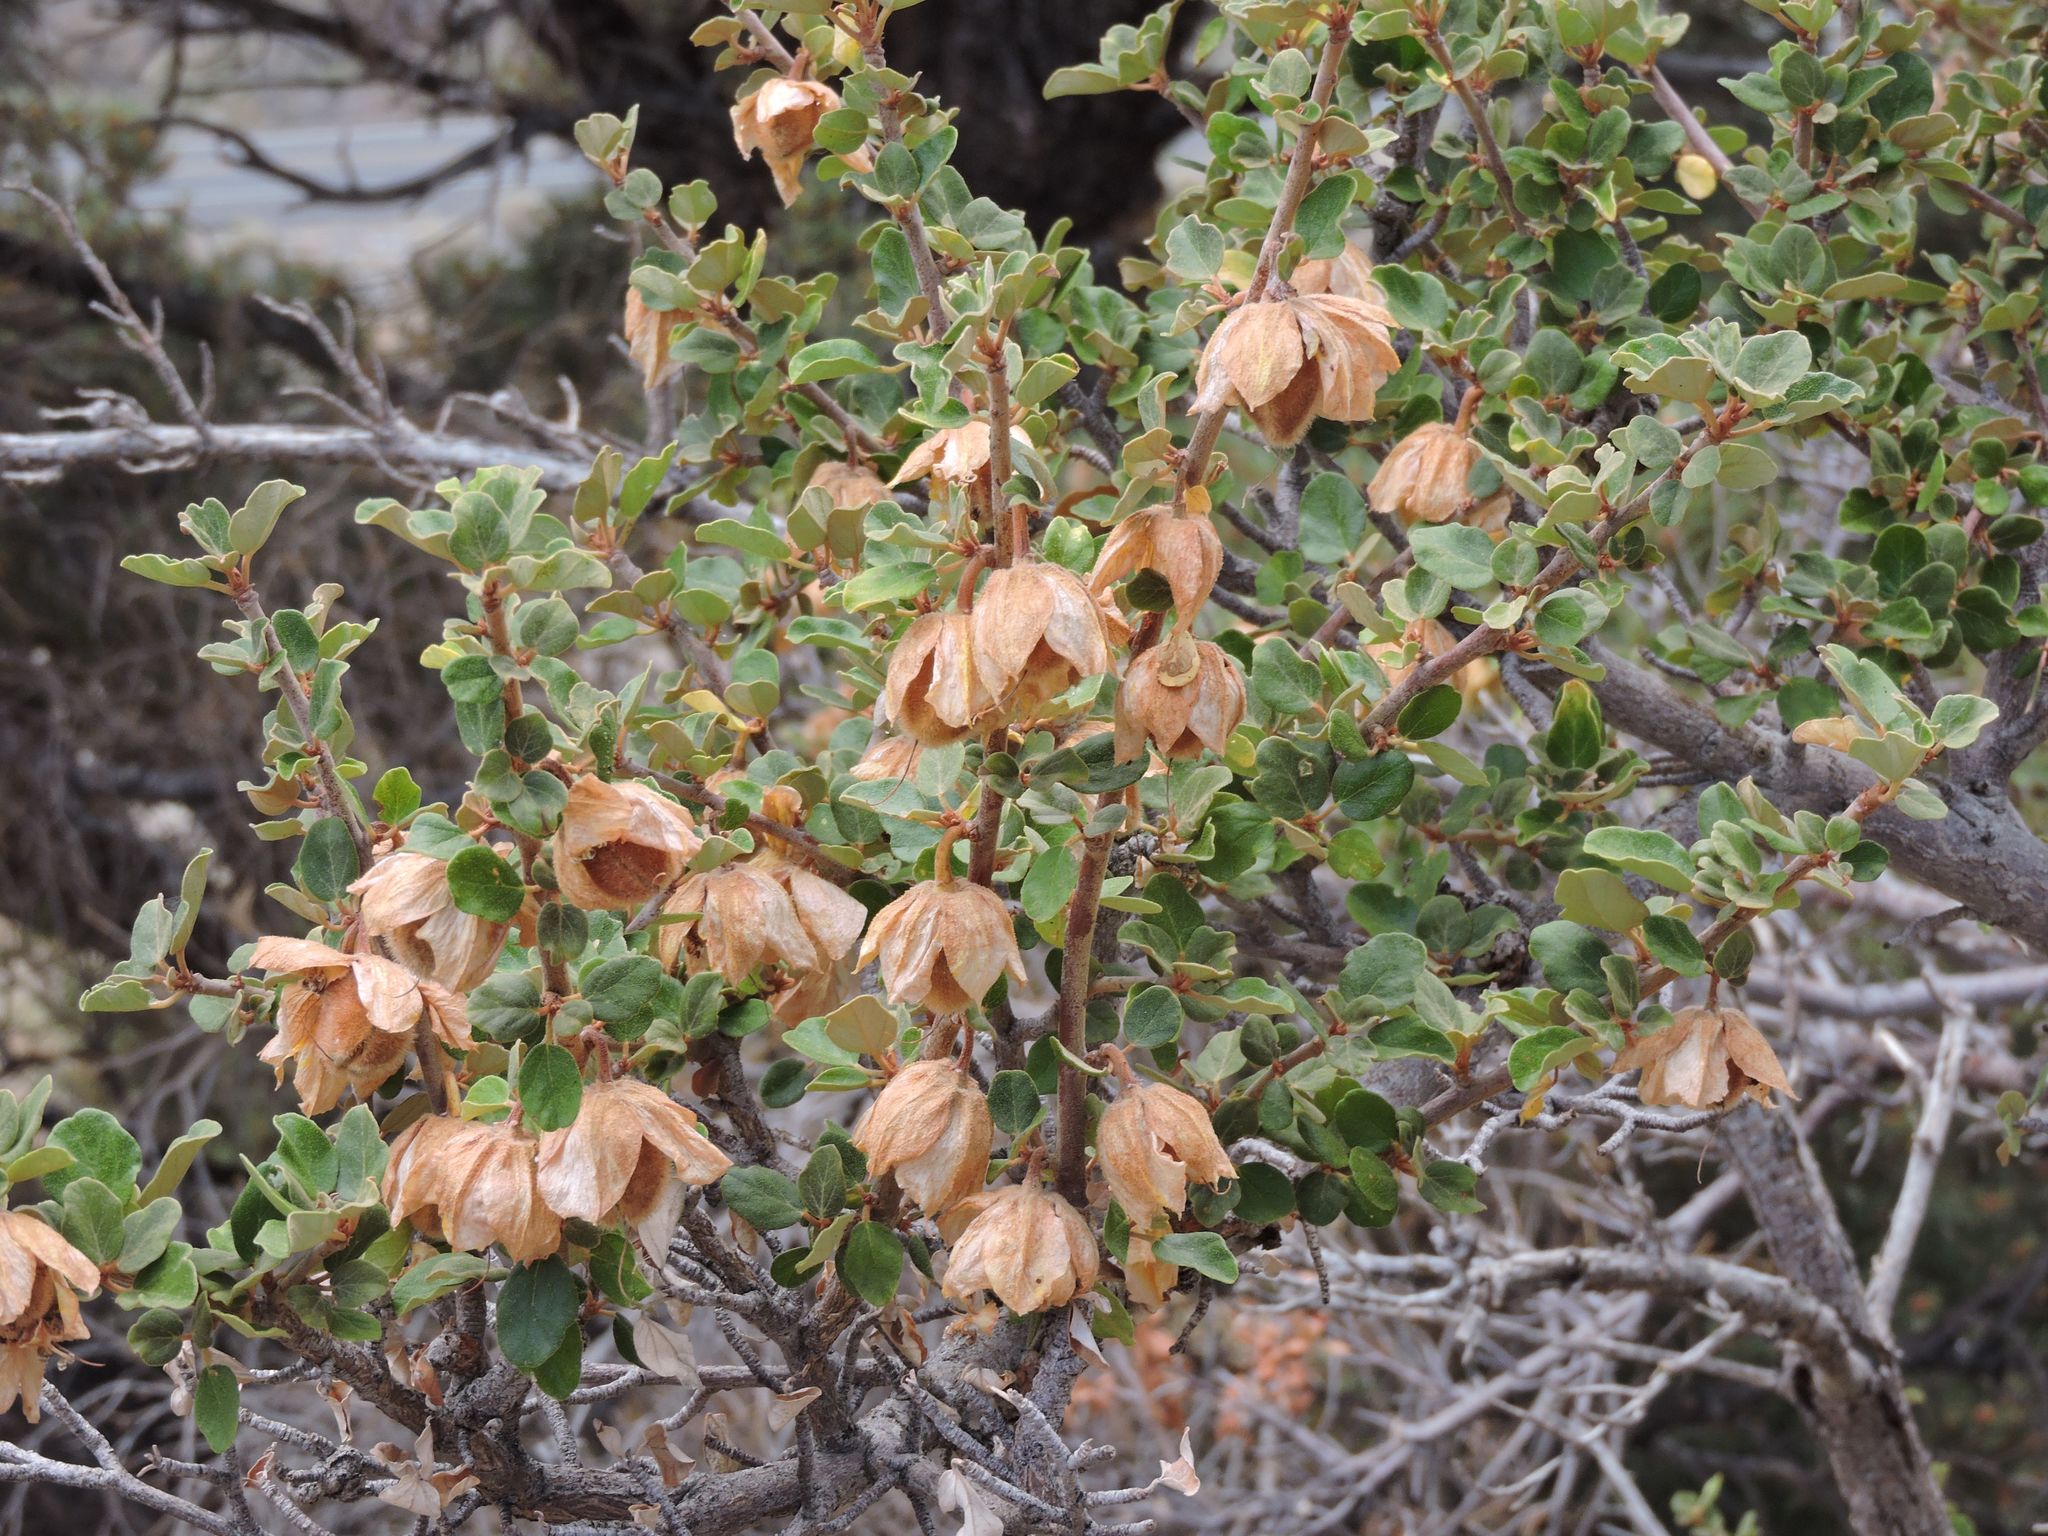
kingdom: Plantae
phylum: Tracheophyta
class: Magnoliopsida
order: Malvales
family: Malvaceae
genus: Fremontodendron
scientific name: Fremontodendron californicum
